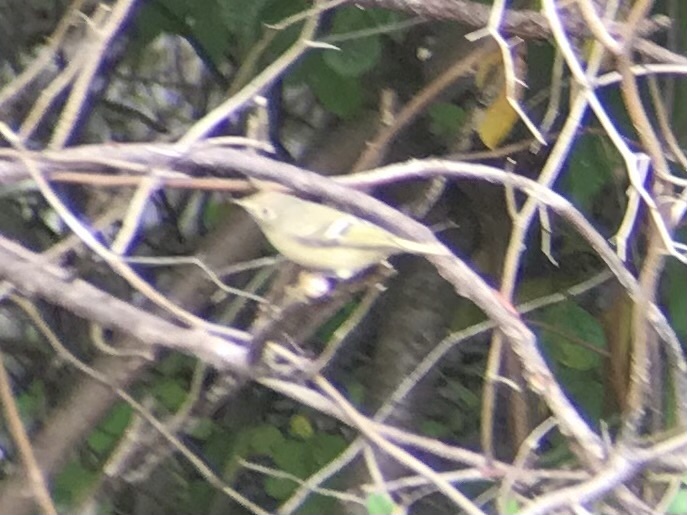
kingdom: Animalia
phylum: Chordata
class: Aves
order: Passeriformes
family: Regulidae
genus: Regulus
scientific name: Regulus calendula
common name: Ruby-crowned kinglet
